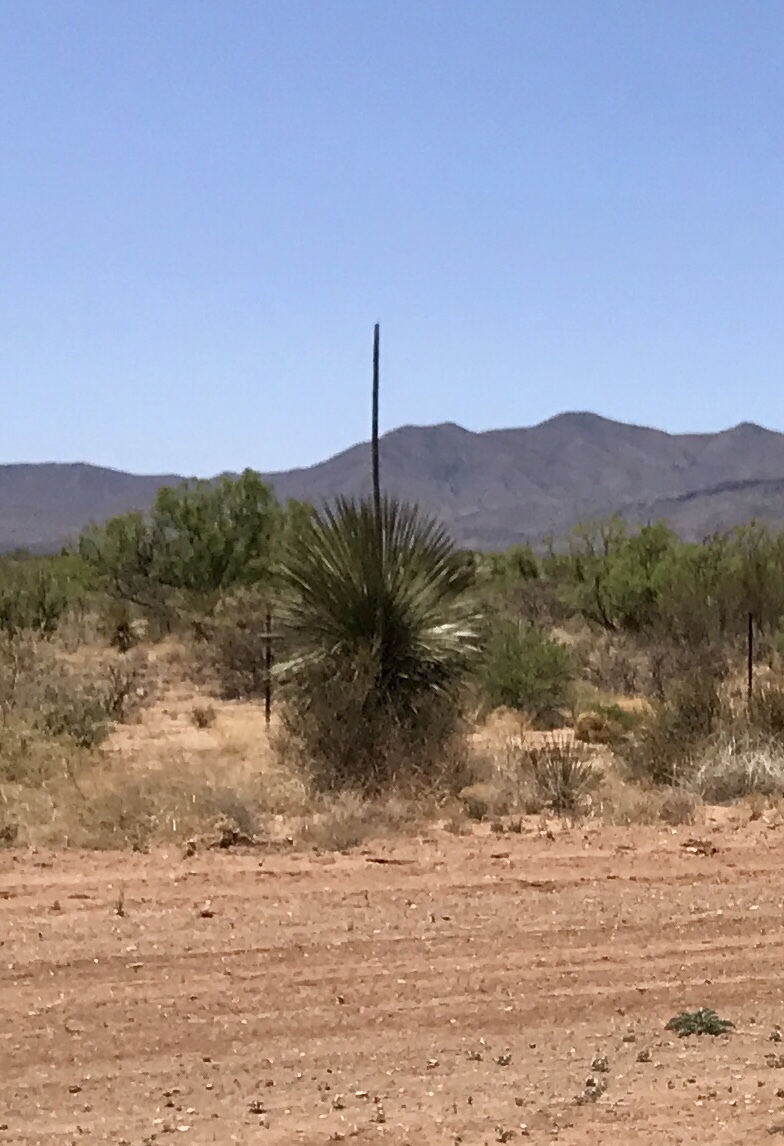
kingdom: Plantae
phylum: Tracheophyta
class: Liliopsida
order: Asparagales
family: Asparagaceae
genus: Yucca
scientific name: Yucca elata
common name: Palmella
